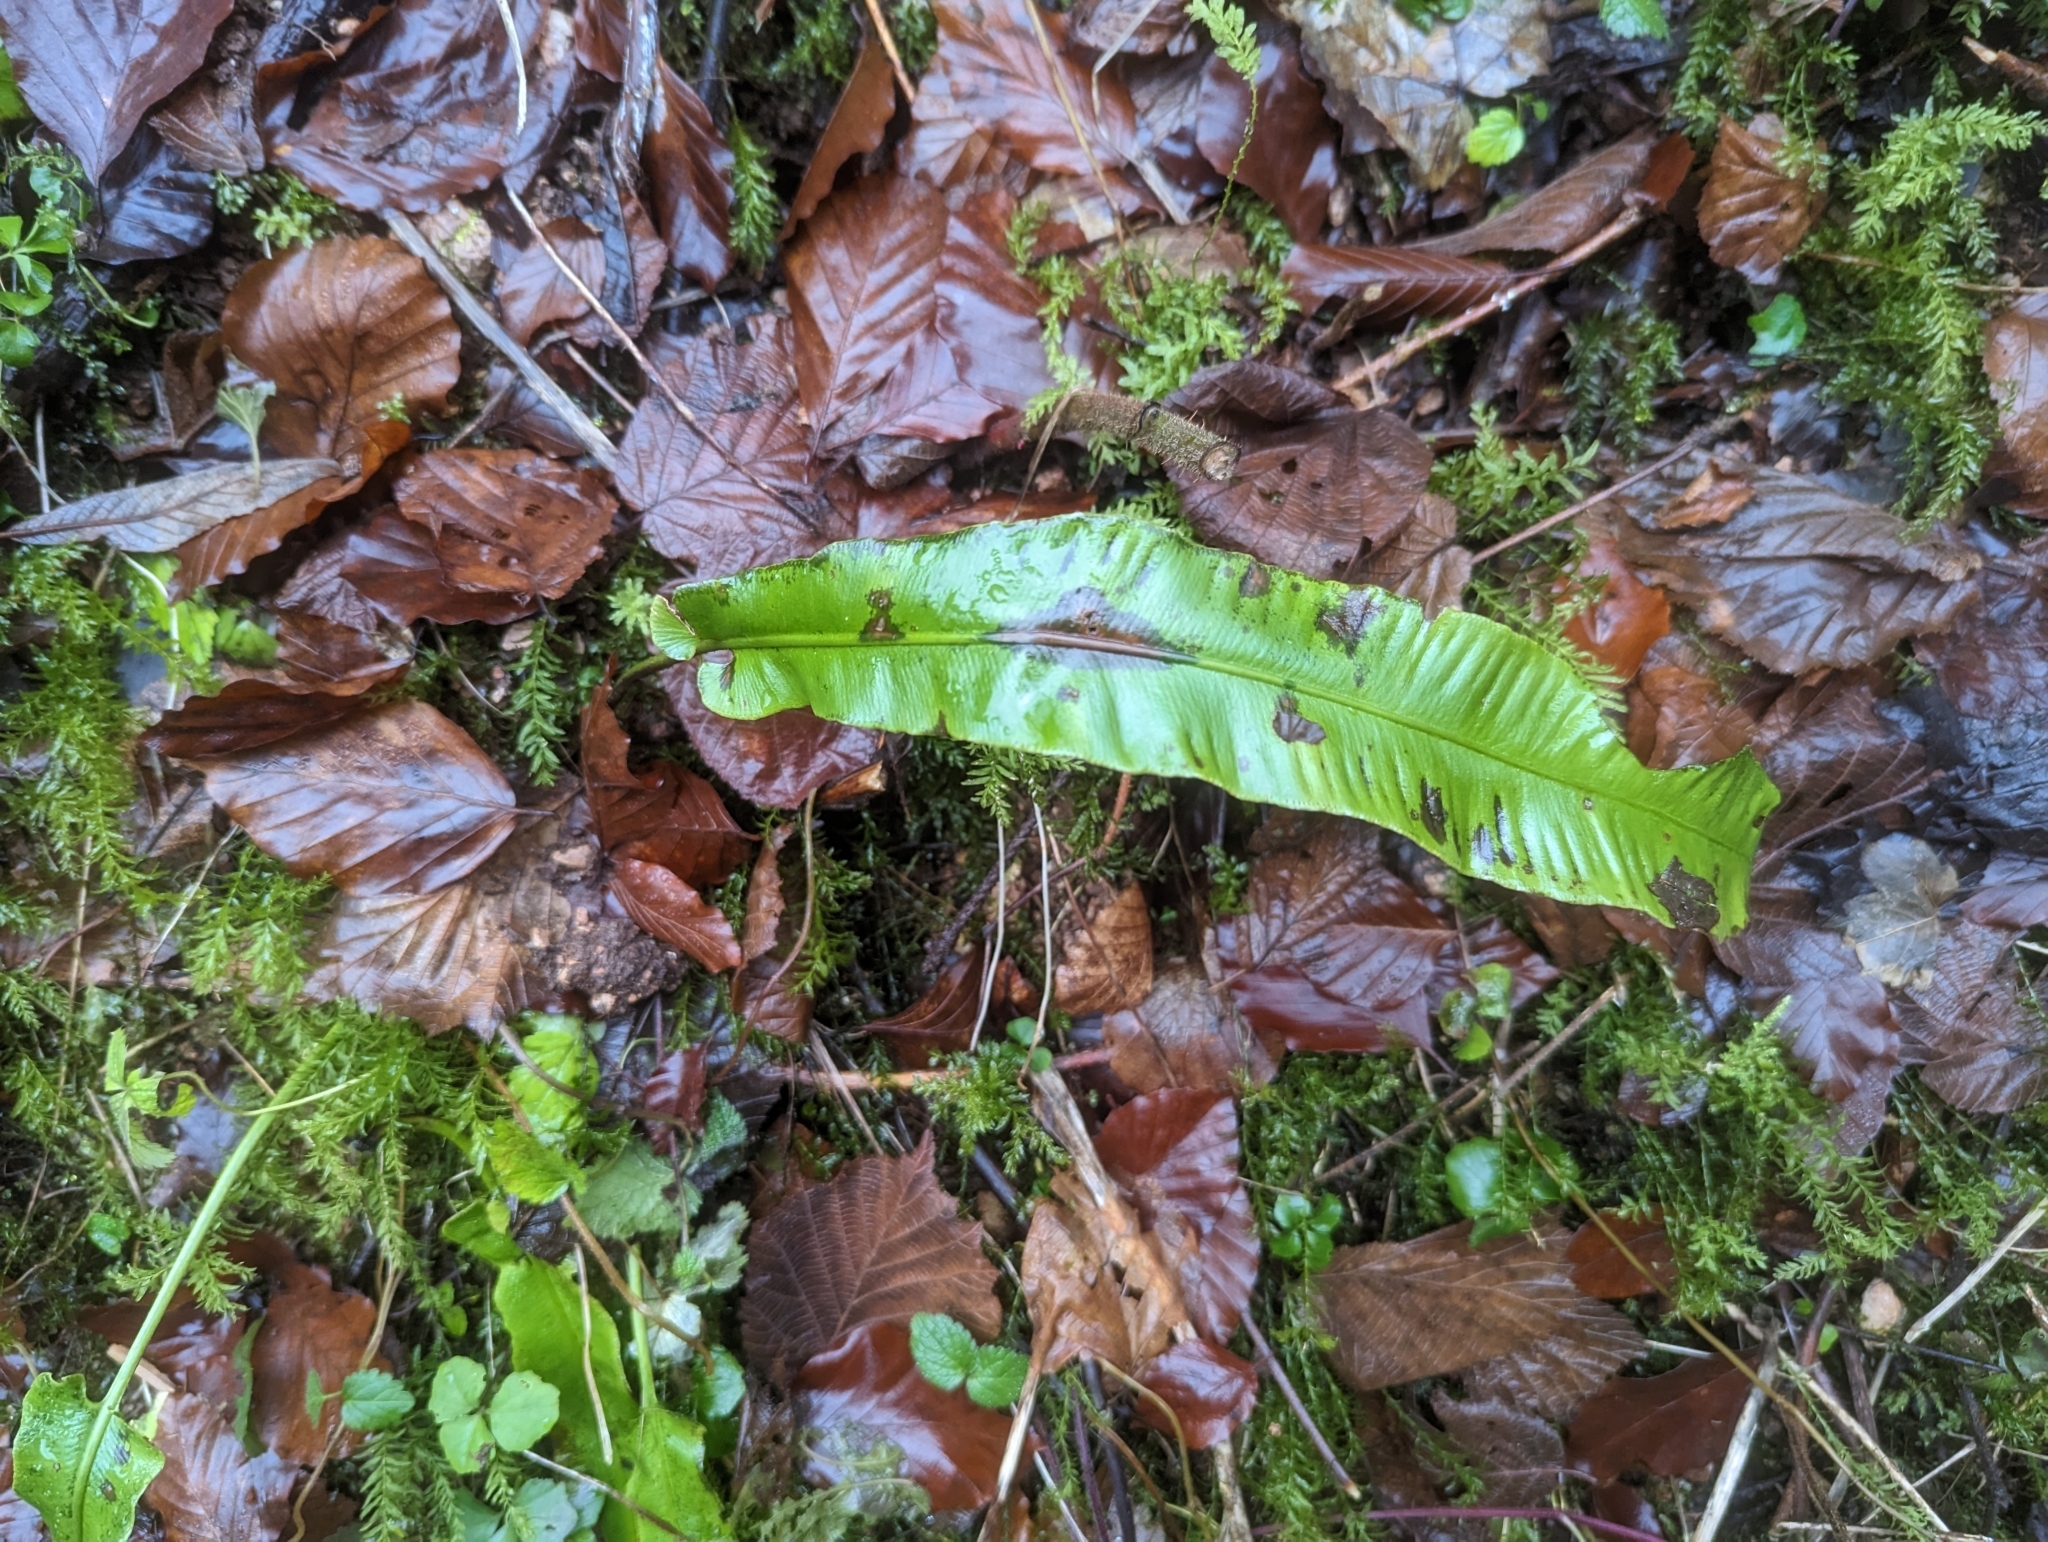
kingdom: Plantae
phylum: Tracheophyta
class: Polypodiopsida
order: Polypodiales
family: Aspleniaceae
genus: Asplenium
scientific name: Asplenium scolopendrium
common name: Hart's-tongue fern
